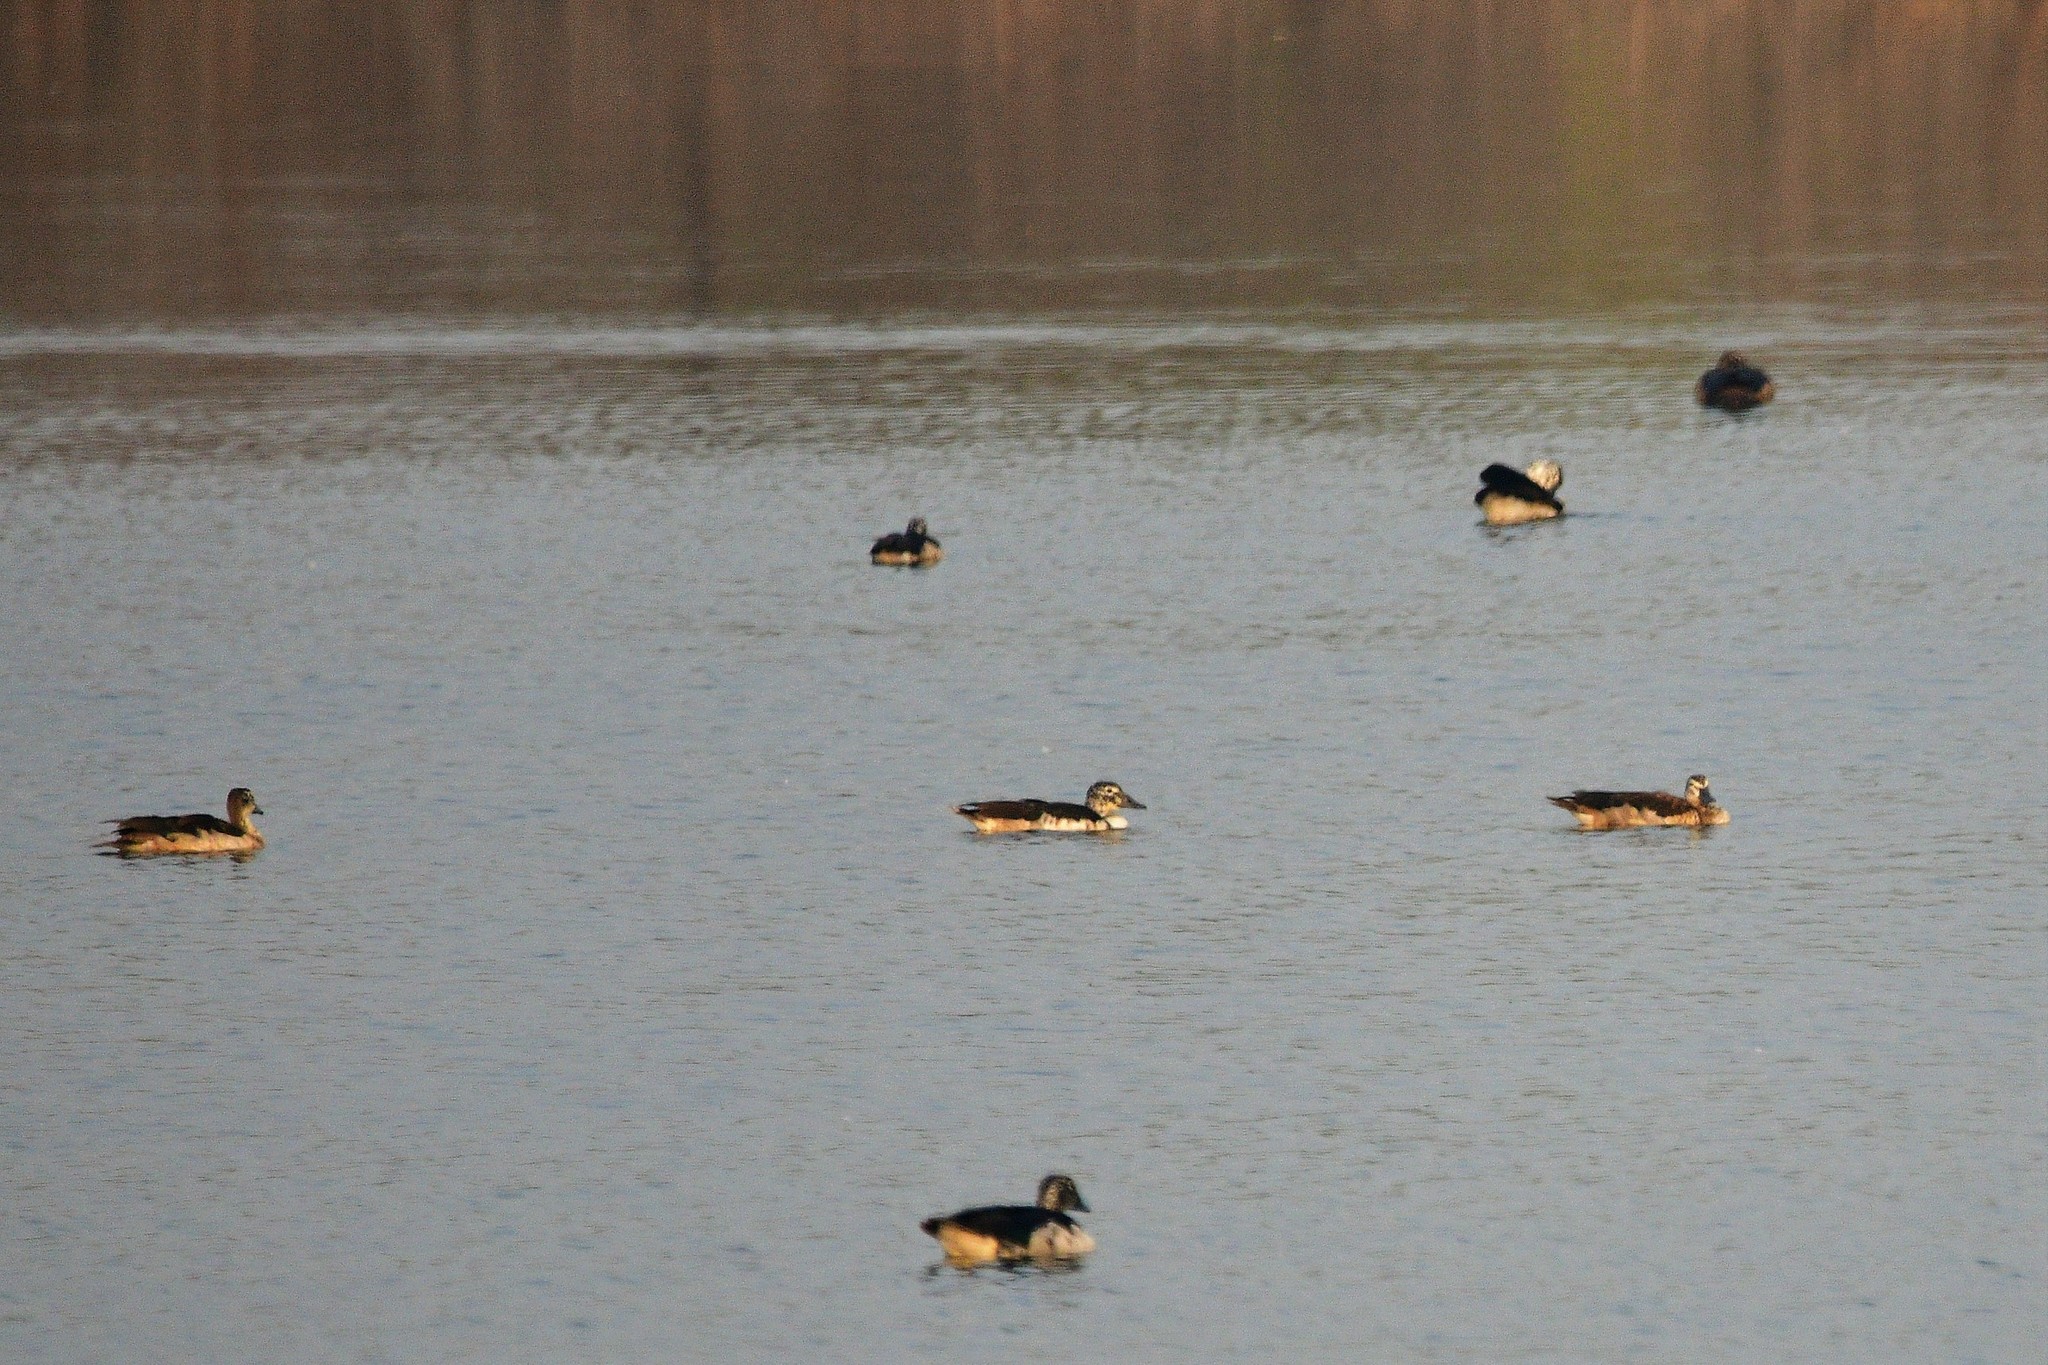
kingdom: Animalia
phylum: Chordata
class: Aves
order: Anseriformes
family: Anatidae
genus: Sarkidiornis
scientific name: Sarkidiornis melanotos
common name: Comb duck
